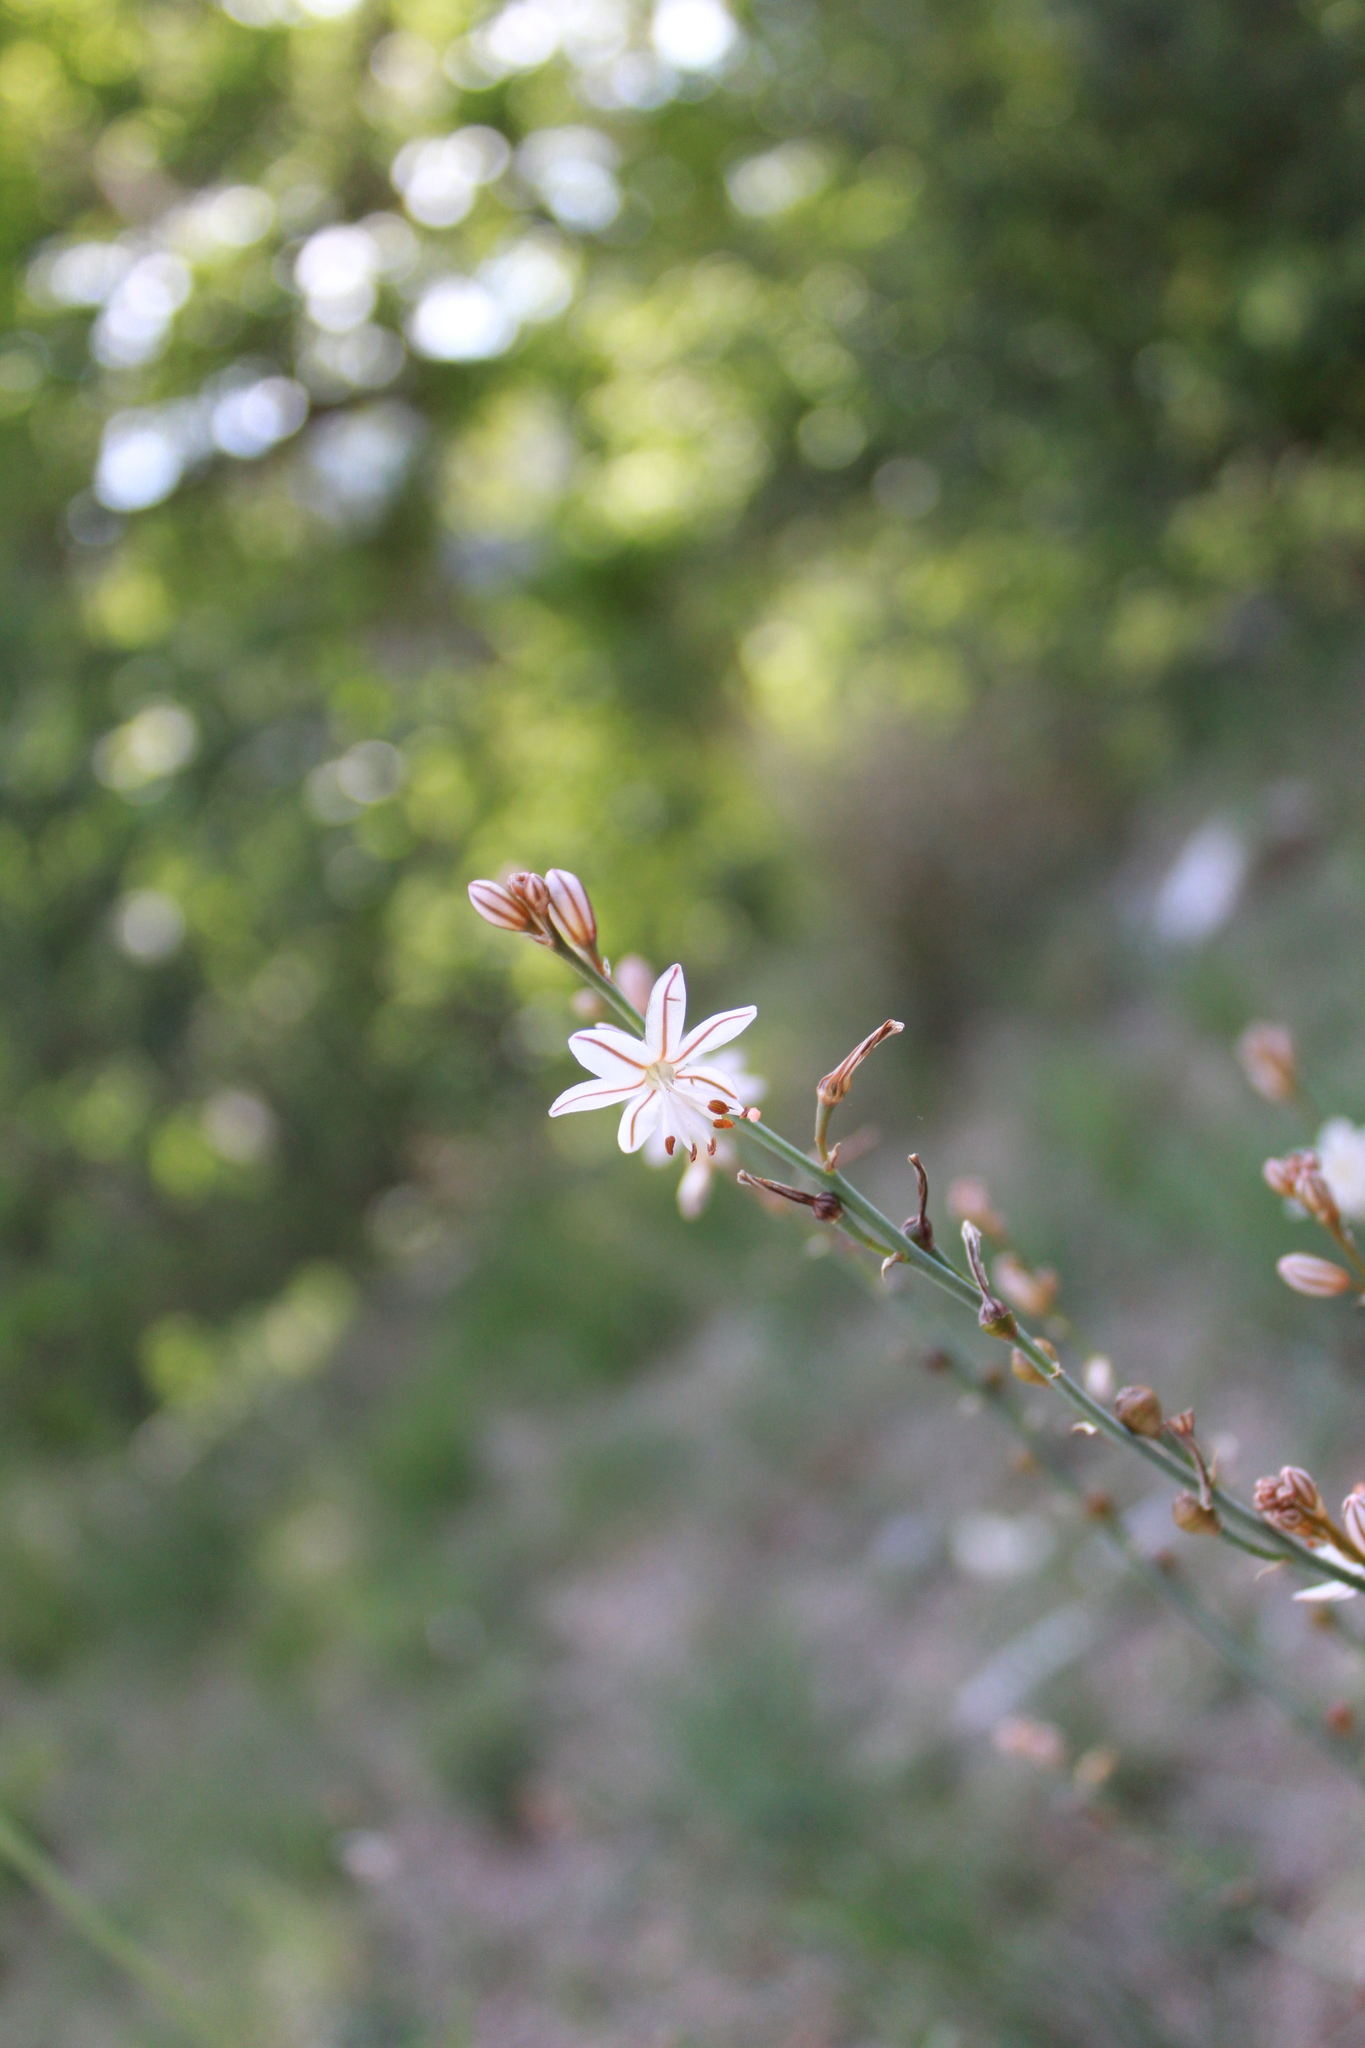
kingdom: Plantae
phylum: Tracheophyta
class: Liliopsida
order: Asparagales
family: Asphodelaceae
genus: Asphodelus
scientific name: Asphodelus fistulosus
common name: Onionweed
